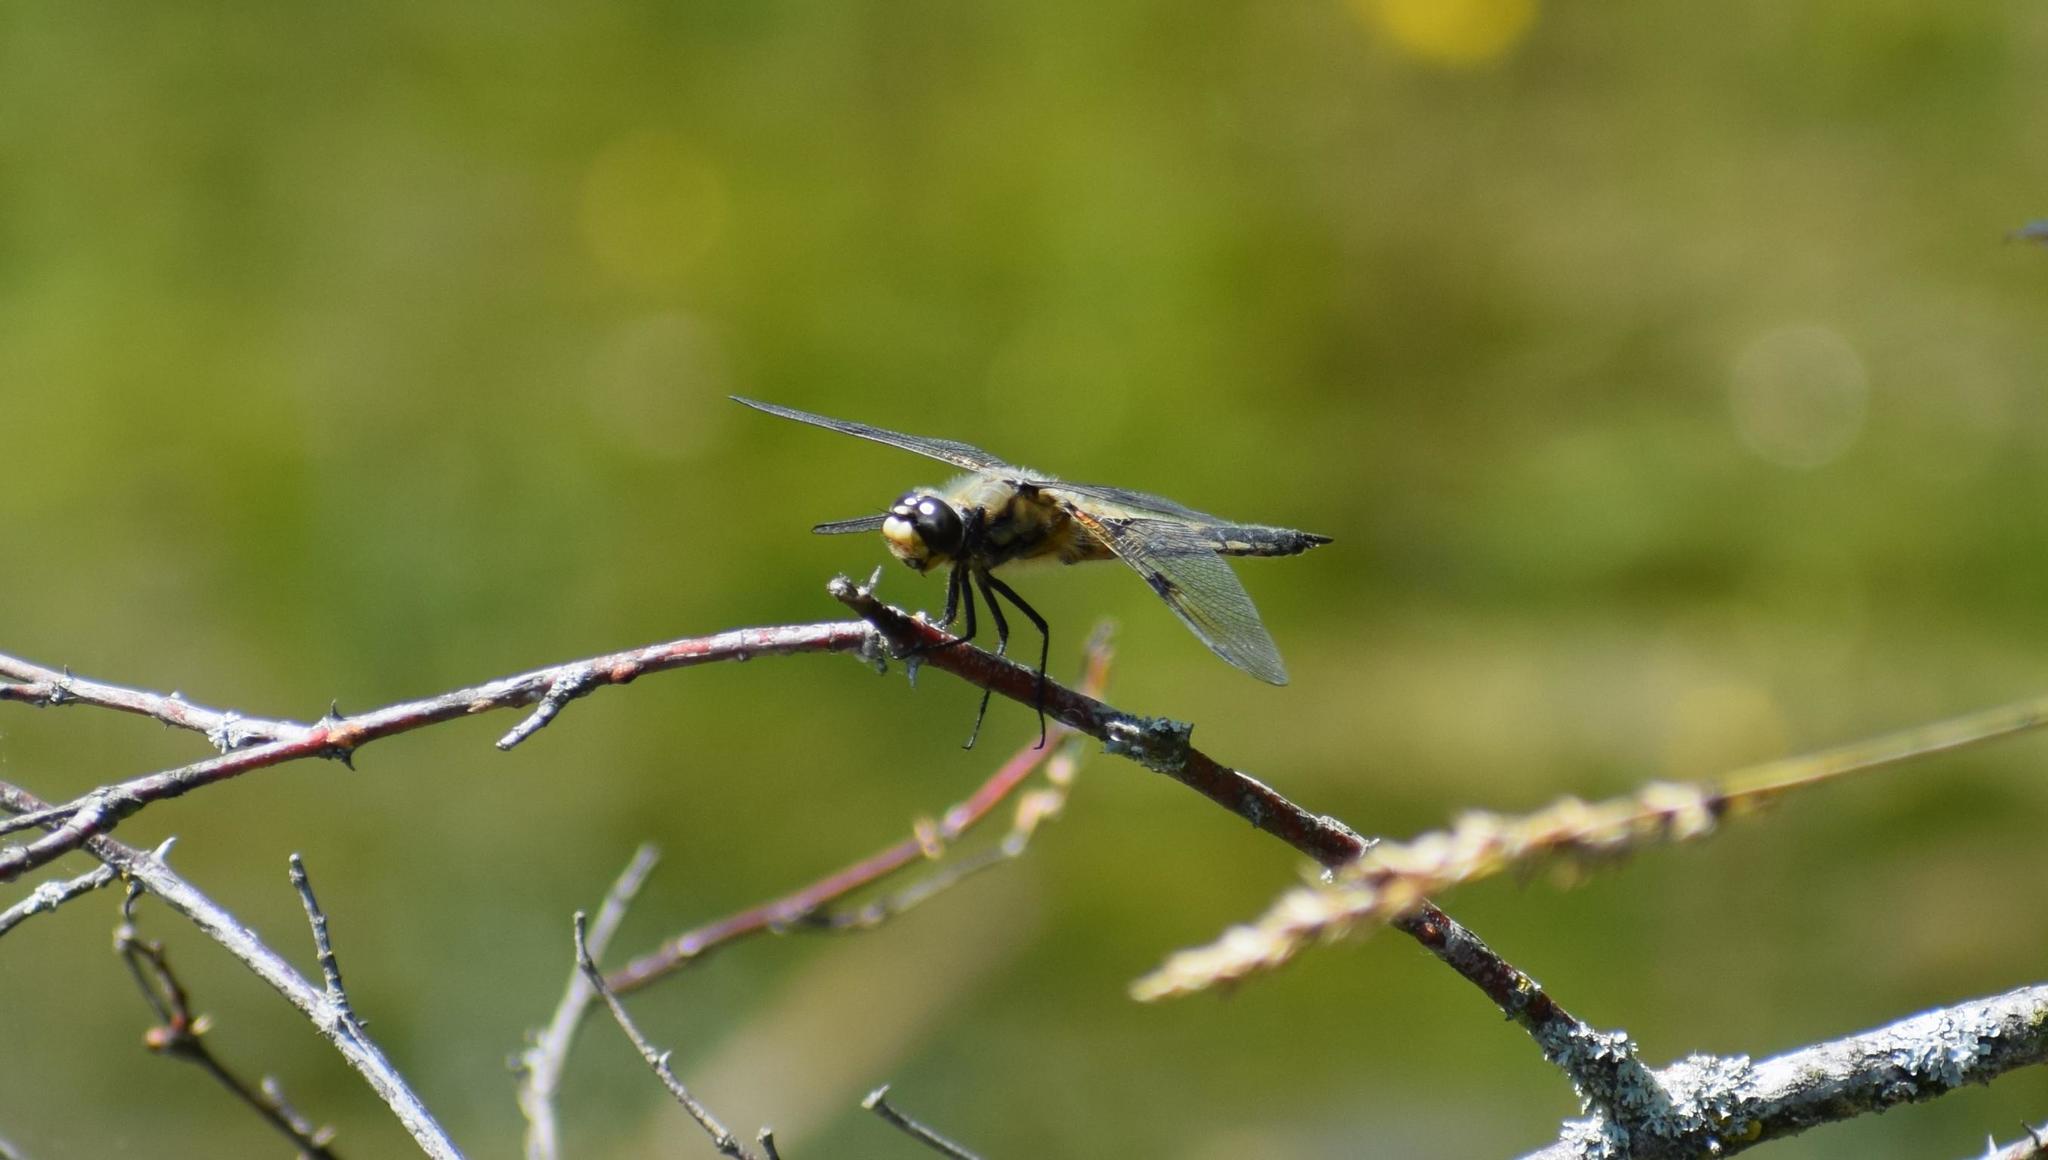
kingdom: Animalia
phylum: Arthropoda
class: Insecta
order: Odonata
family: Libellulidae
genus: Libellula
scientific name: Libellula quadrimaculata
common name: Four-spotted chaser
